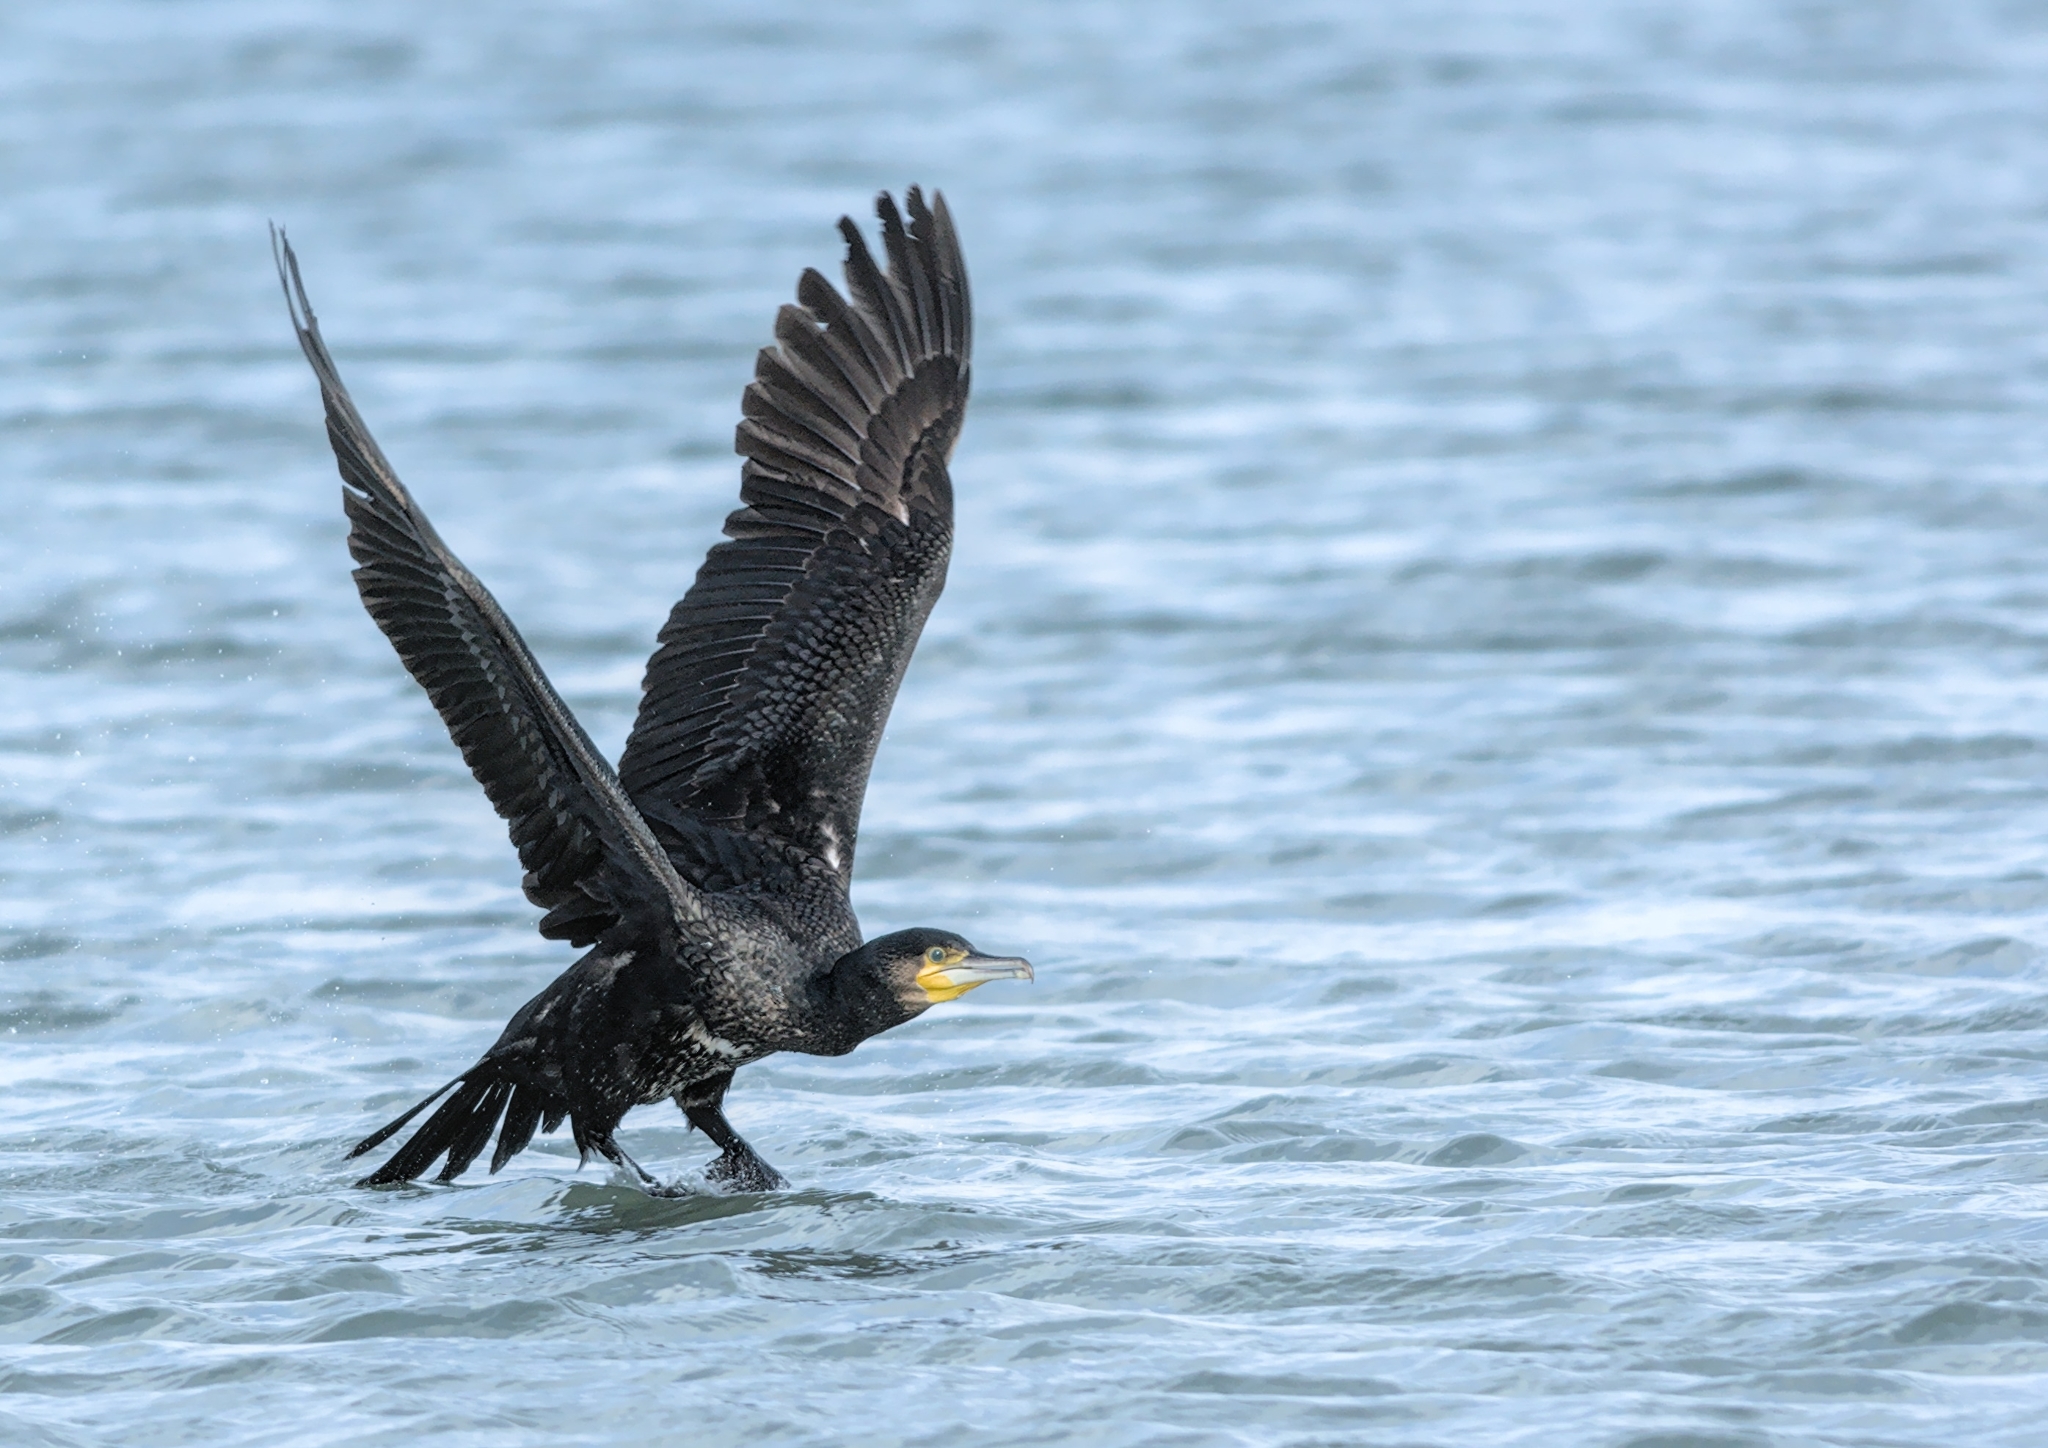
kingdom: Animalia
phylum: Chordata
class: Aves
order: Suliformes
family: Phalacrocoracidae
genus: Phalacrocorax
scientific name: Phalacrocorax carbo
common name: Great cormorant
